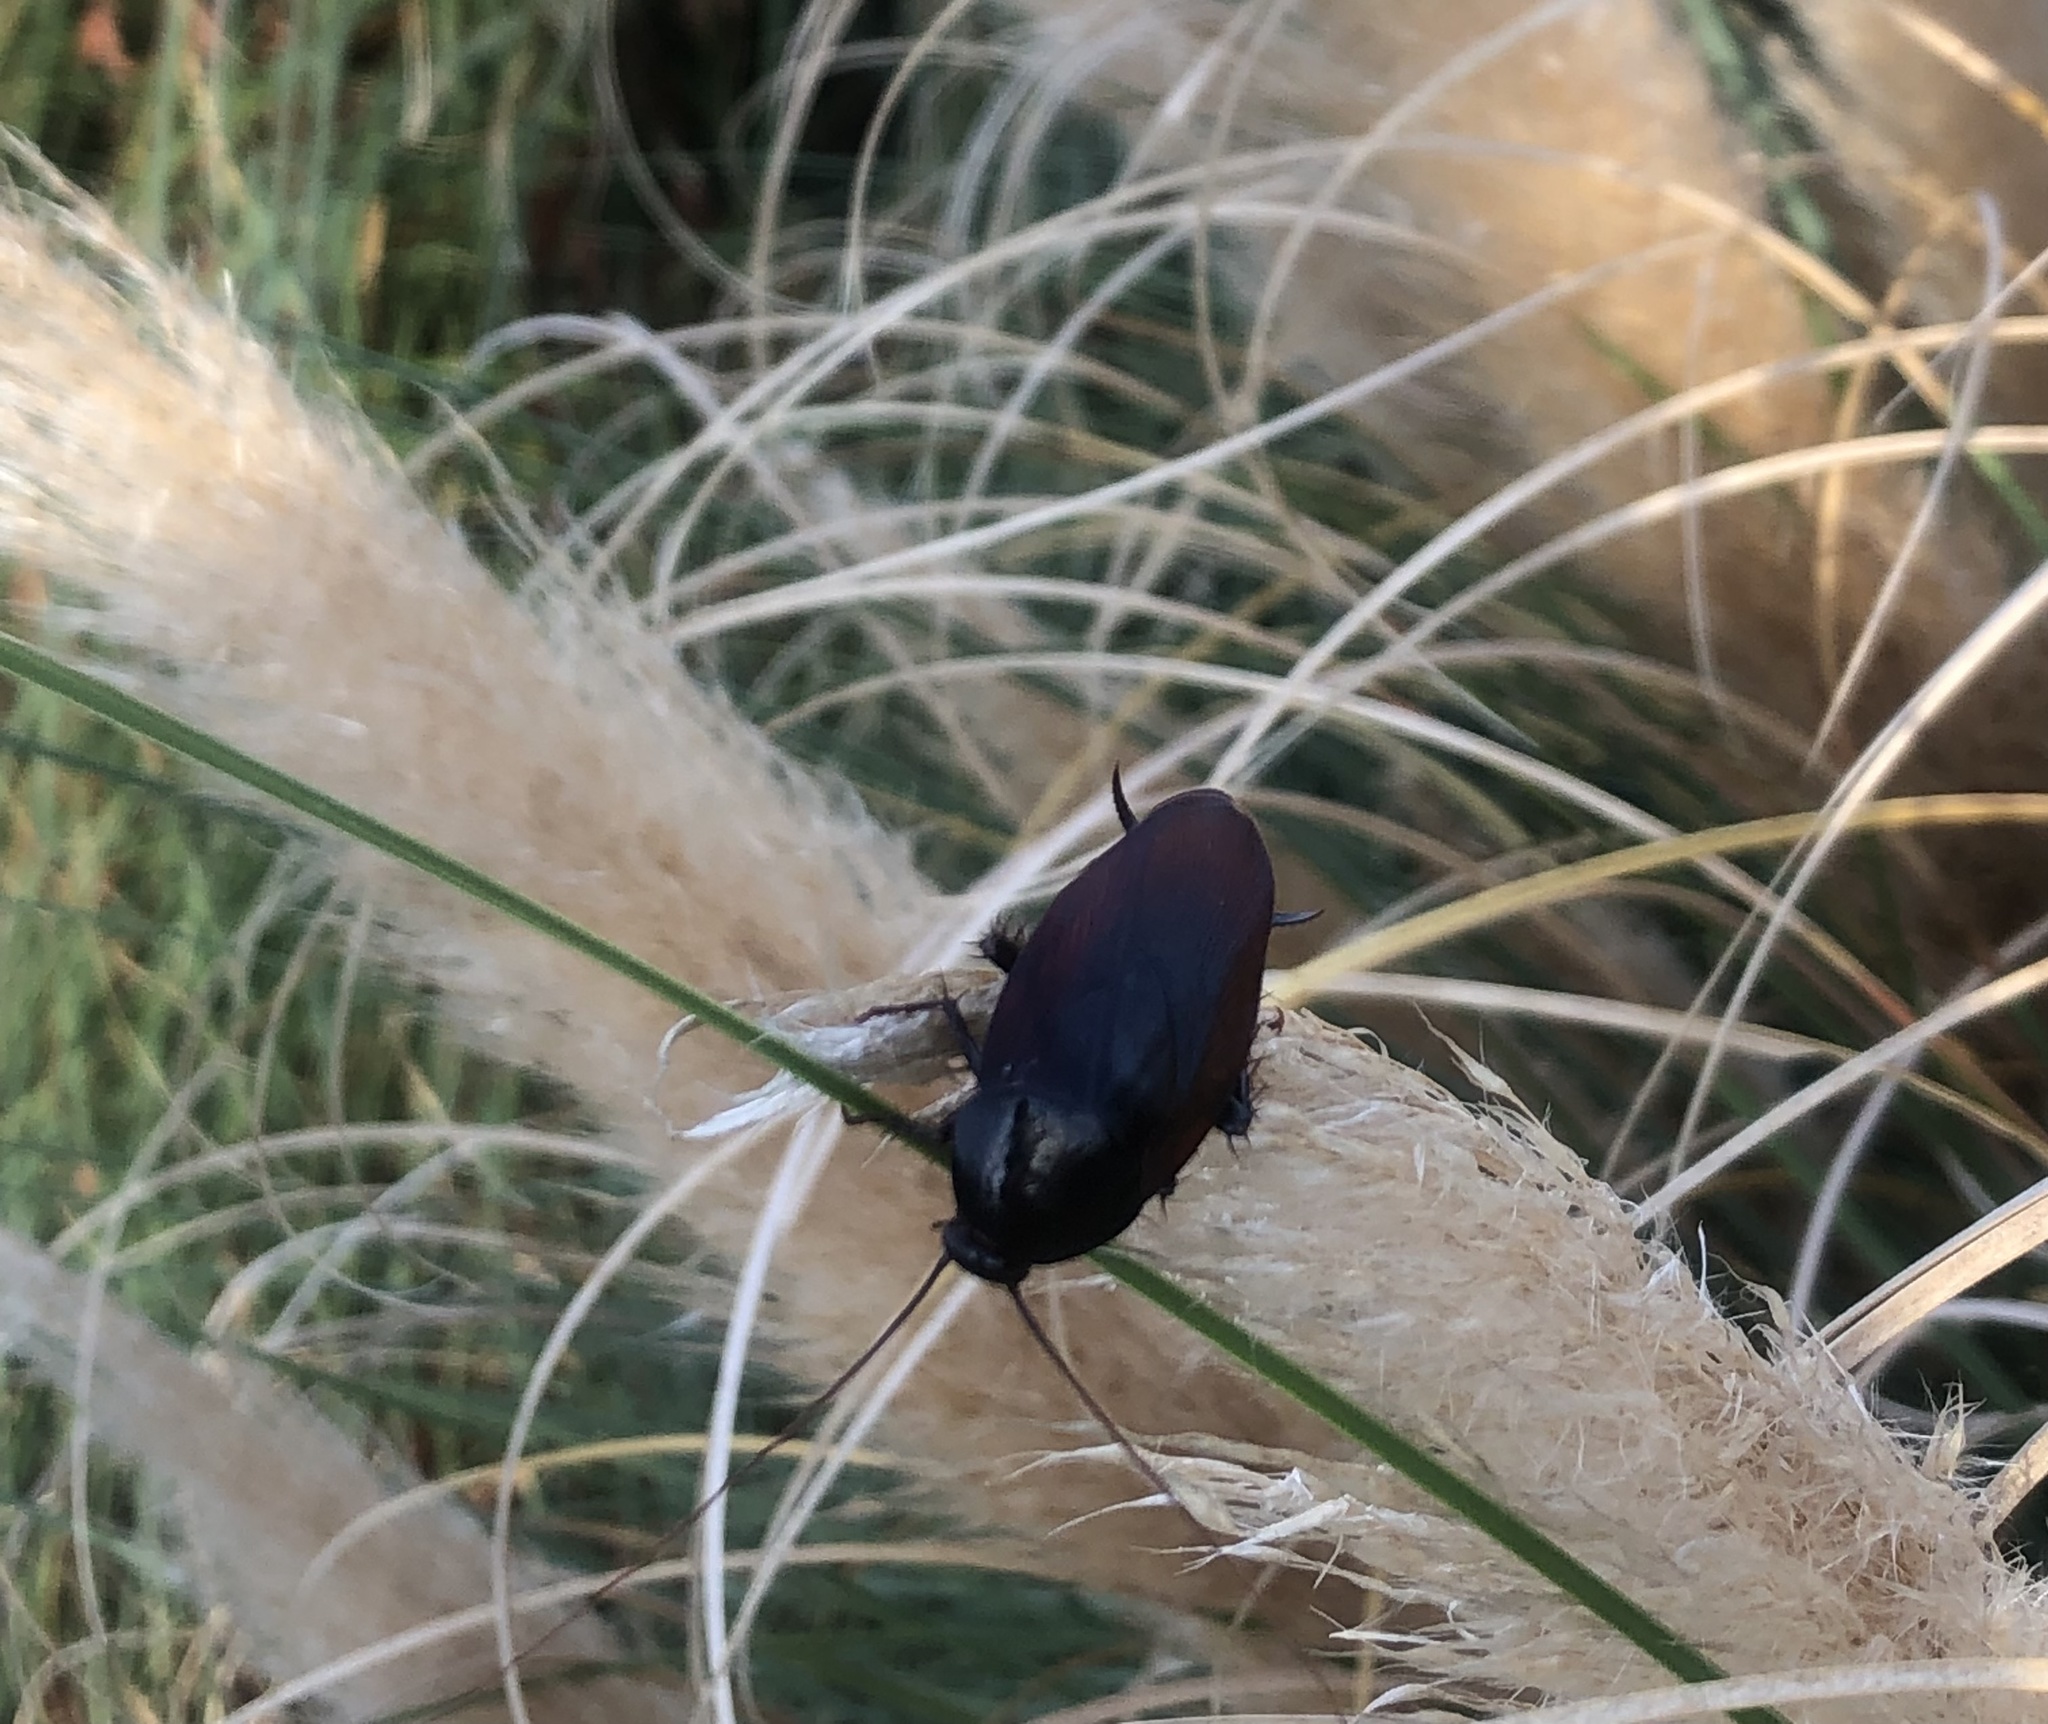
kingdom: Animalia
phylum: Arthropoda
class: Insecta
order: Blattodea
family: Blattidae
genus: Periplaneta
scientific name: Periplaneta fuliginosa
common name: Smokeybrown cockroad
